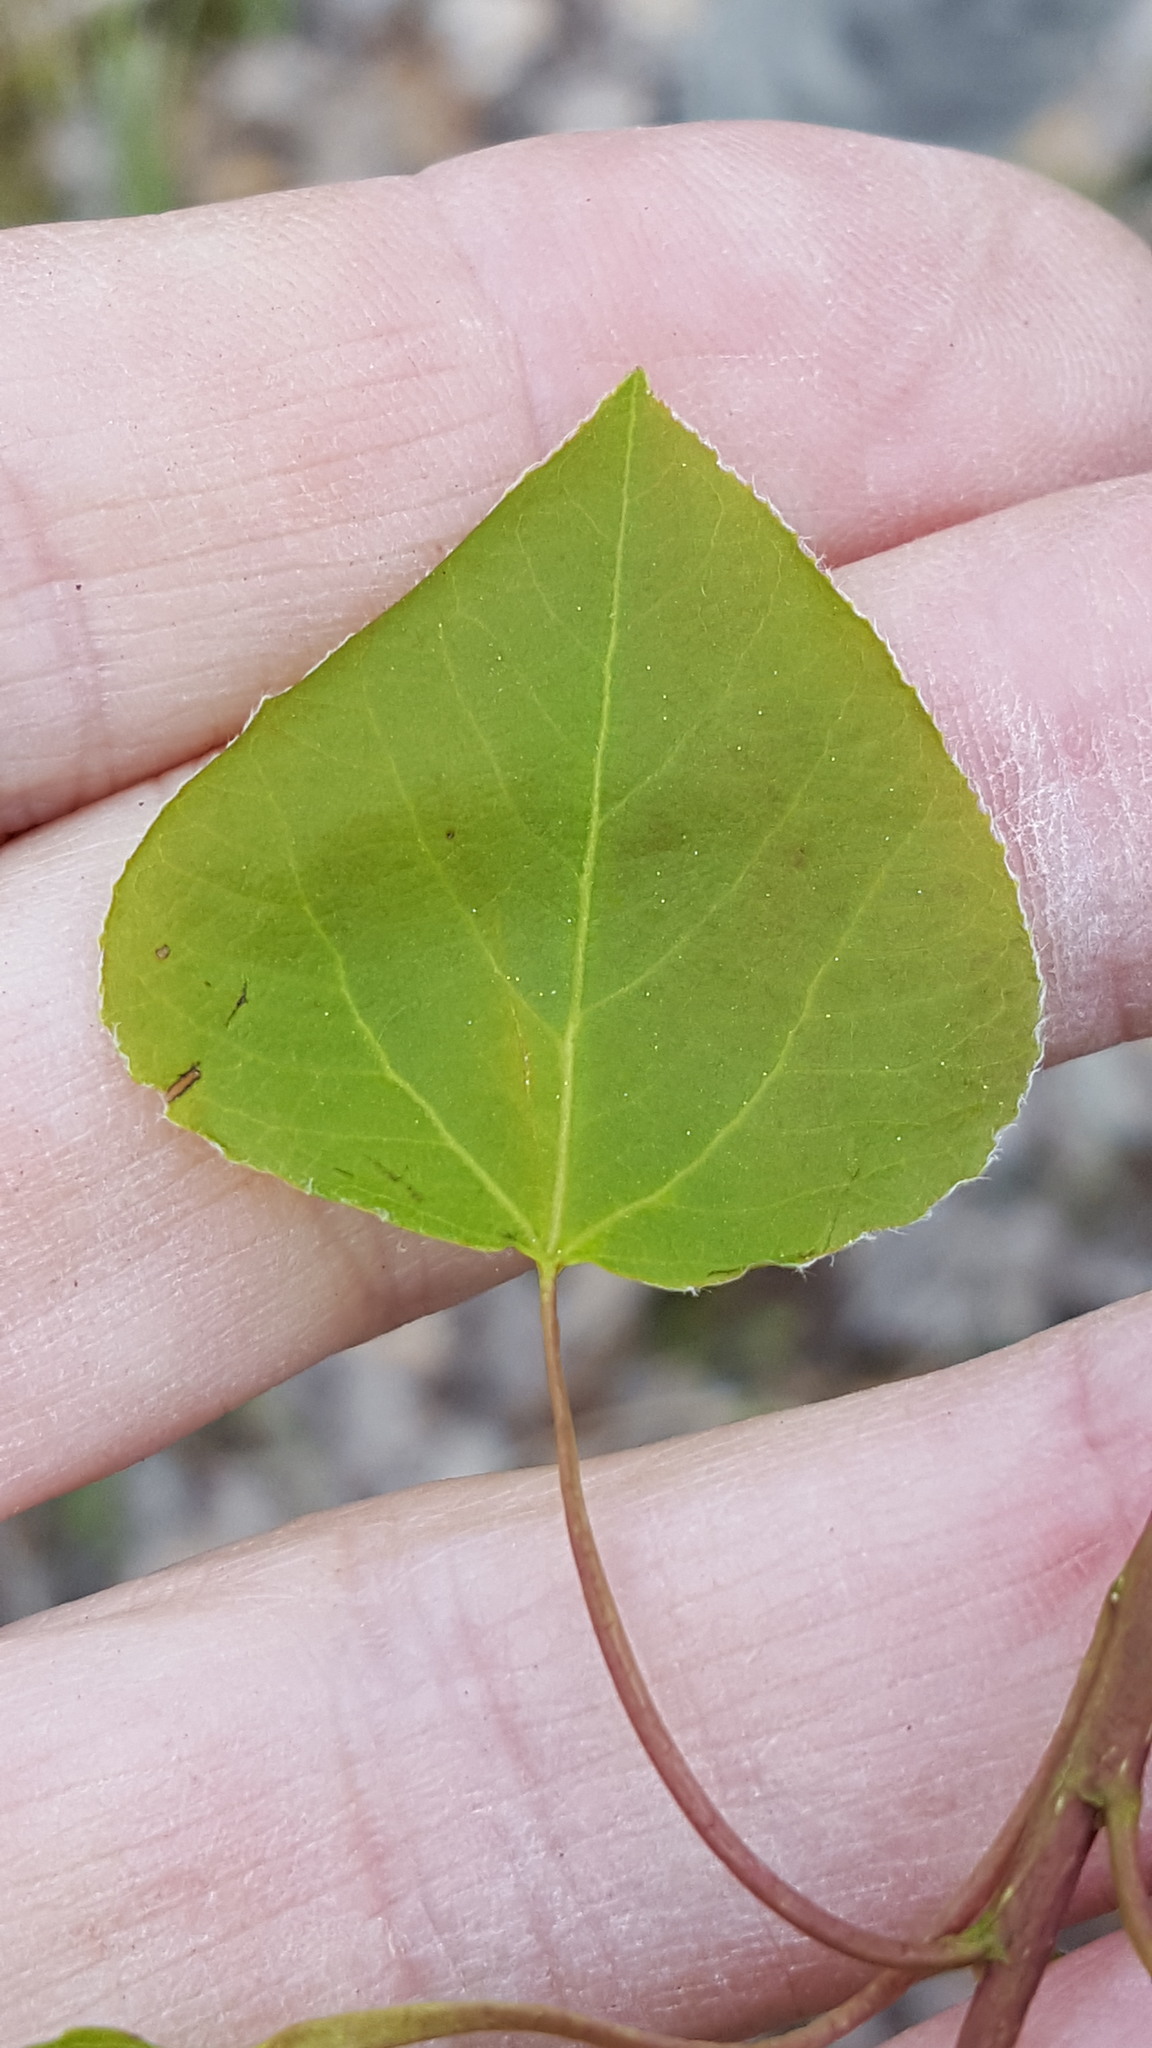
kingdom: Plantae
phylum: Tracheophyta
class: Magnoliopsida
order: Malpighiales
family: Salicaceae
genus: Populus
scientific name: Populus tremuloides
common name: Quaking aspen
